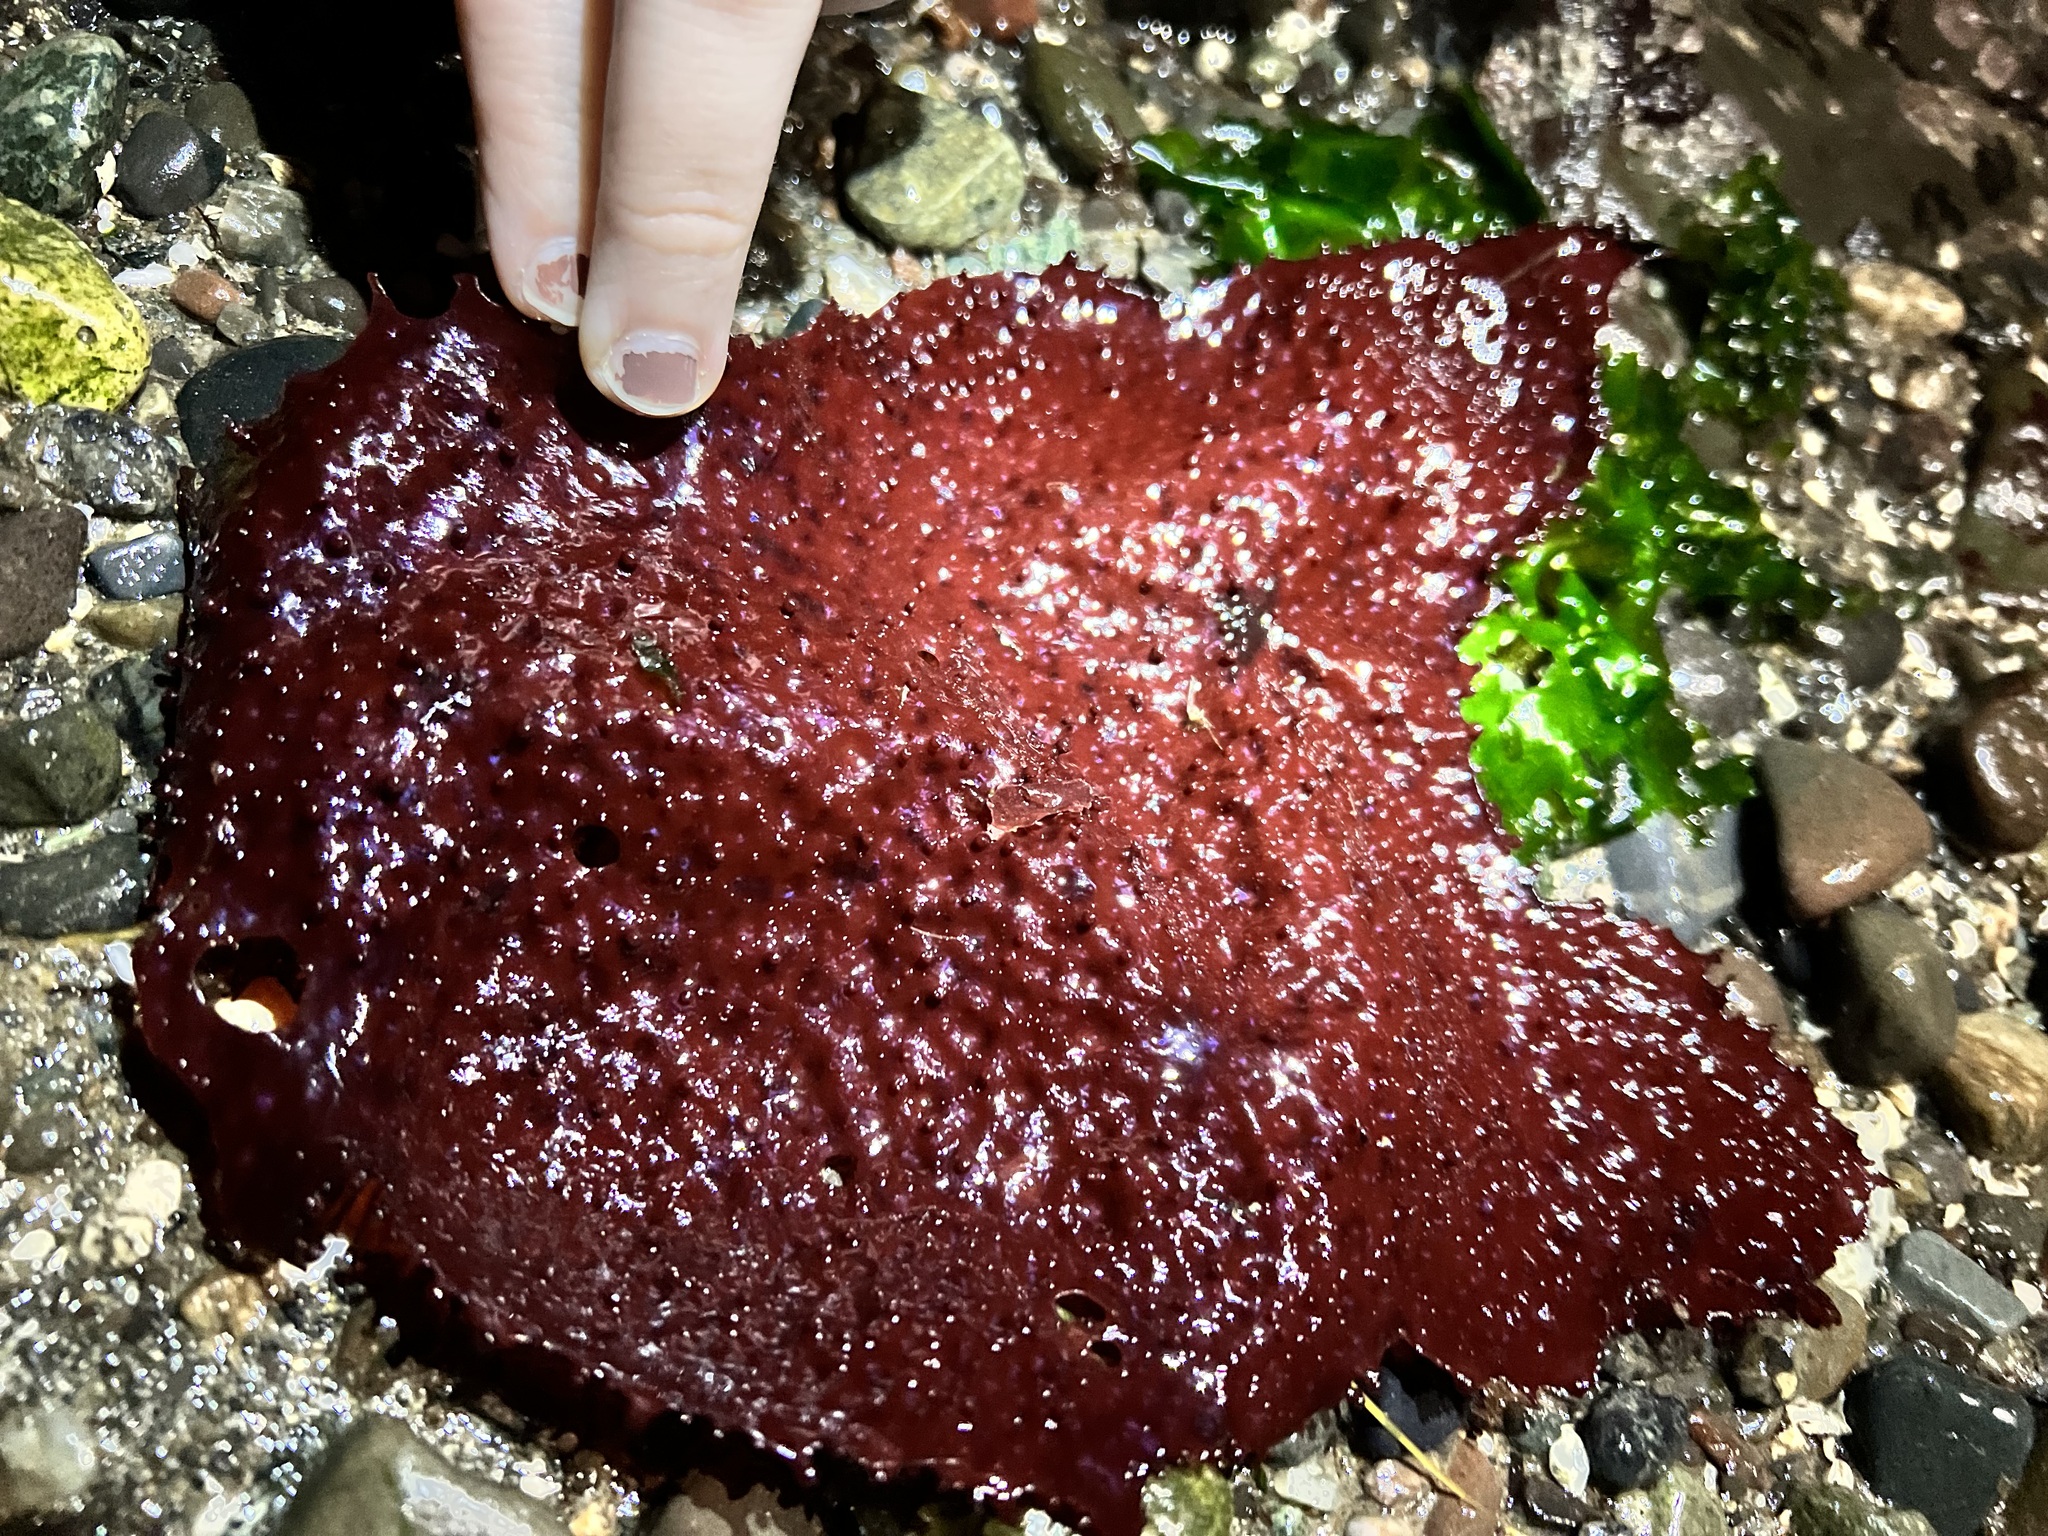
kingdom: Plantae
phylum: Rhodophyta
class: Florideophyceae
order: Gigartinales
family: Gigartinaceae
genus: Chondracanthus
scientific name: Chondracanthus exasperatus
